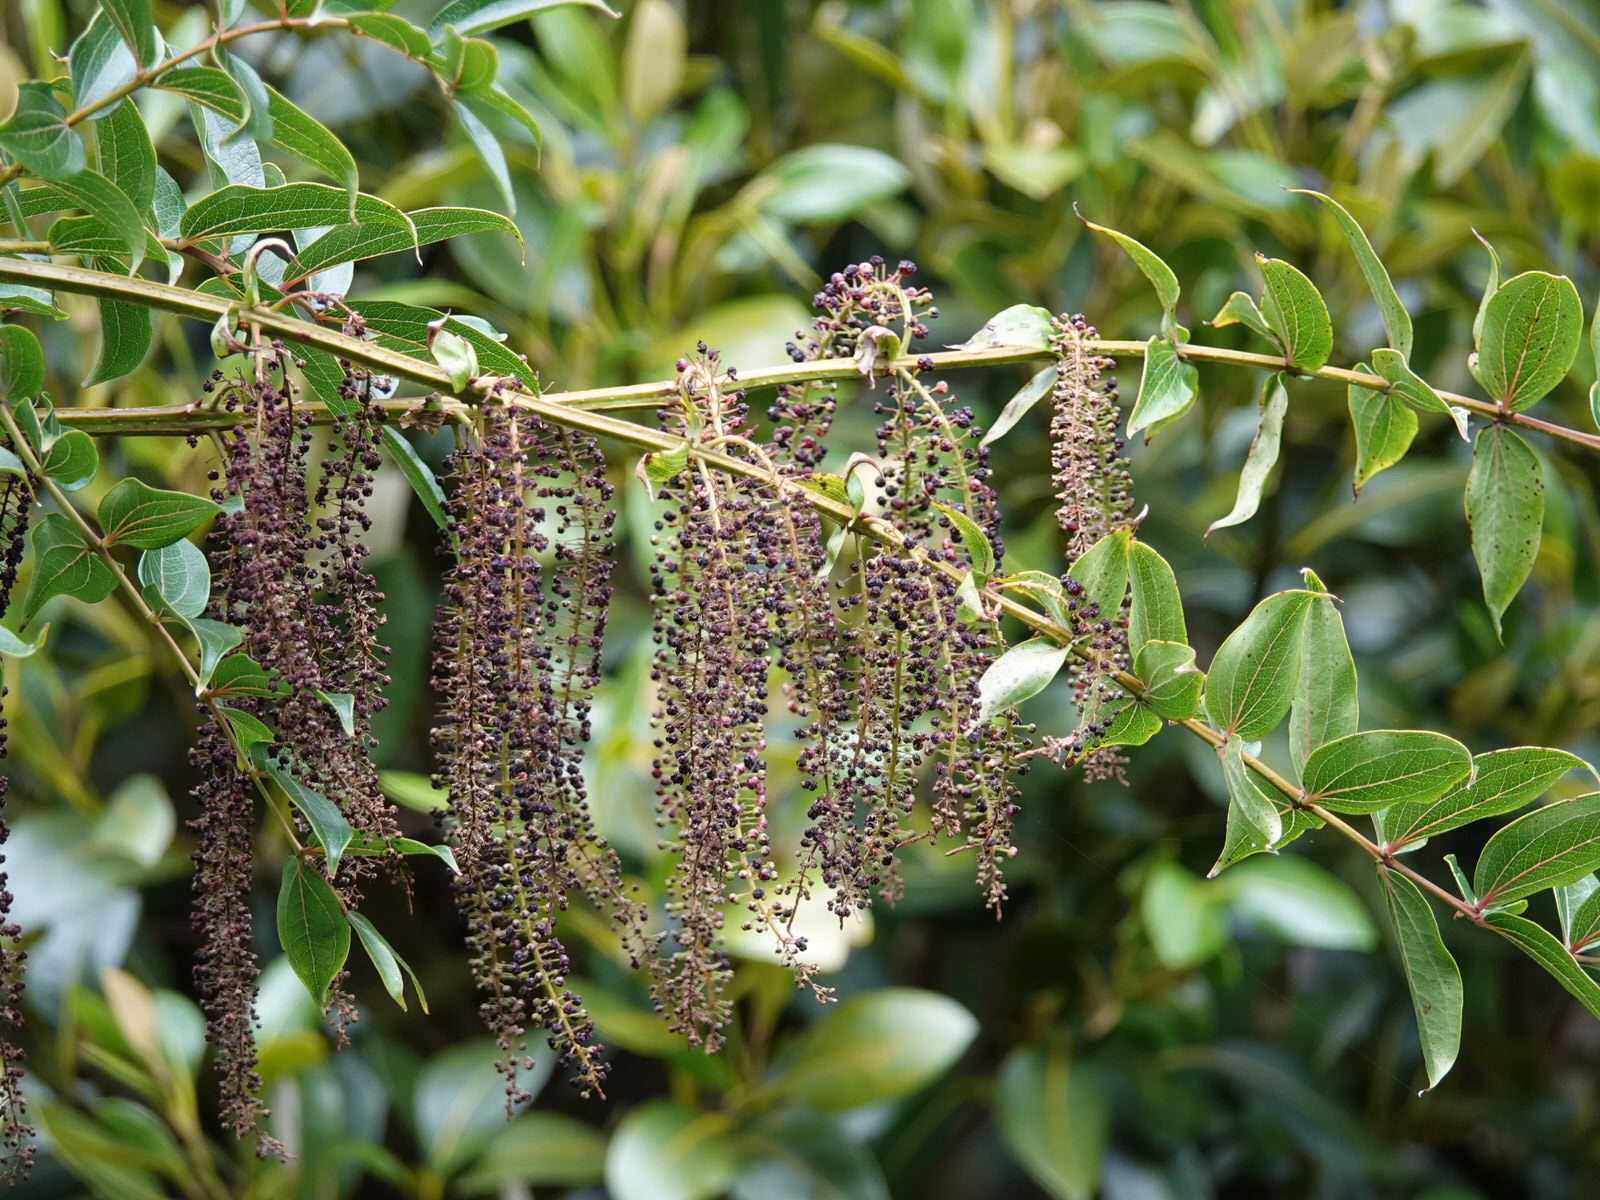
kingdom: Plantae
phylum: Tracheophyta
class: Magnoliopsida
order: Cucurbitales
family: Coriariaceae
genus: Coriaria
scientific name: Coriaria arborea
